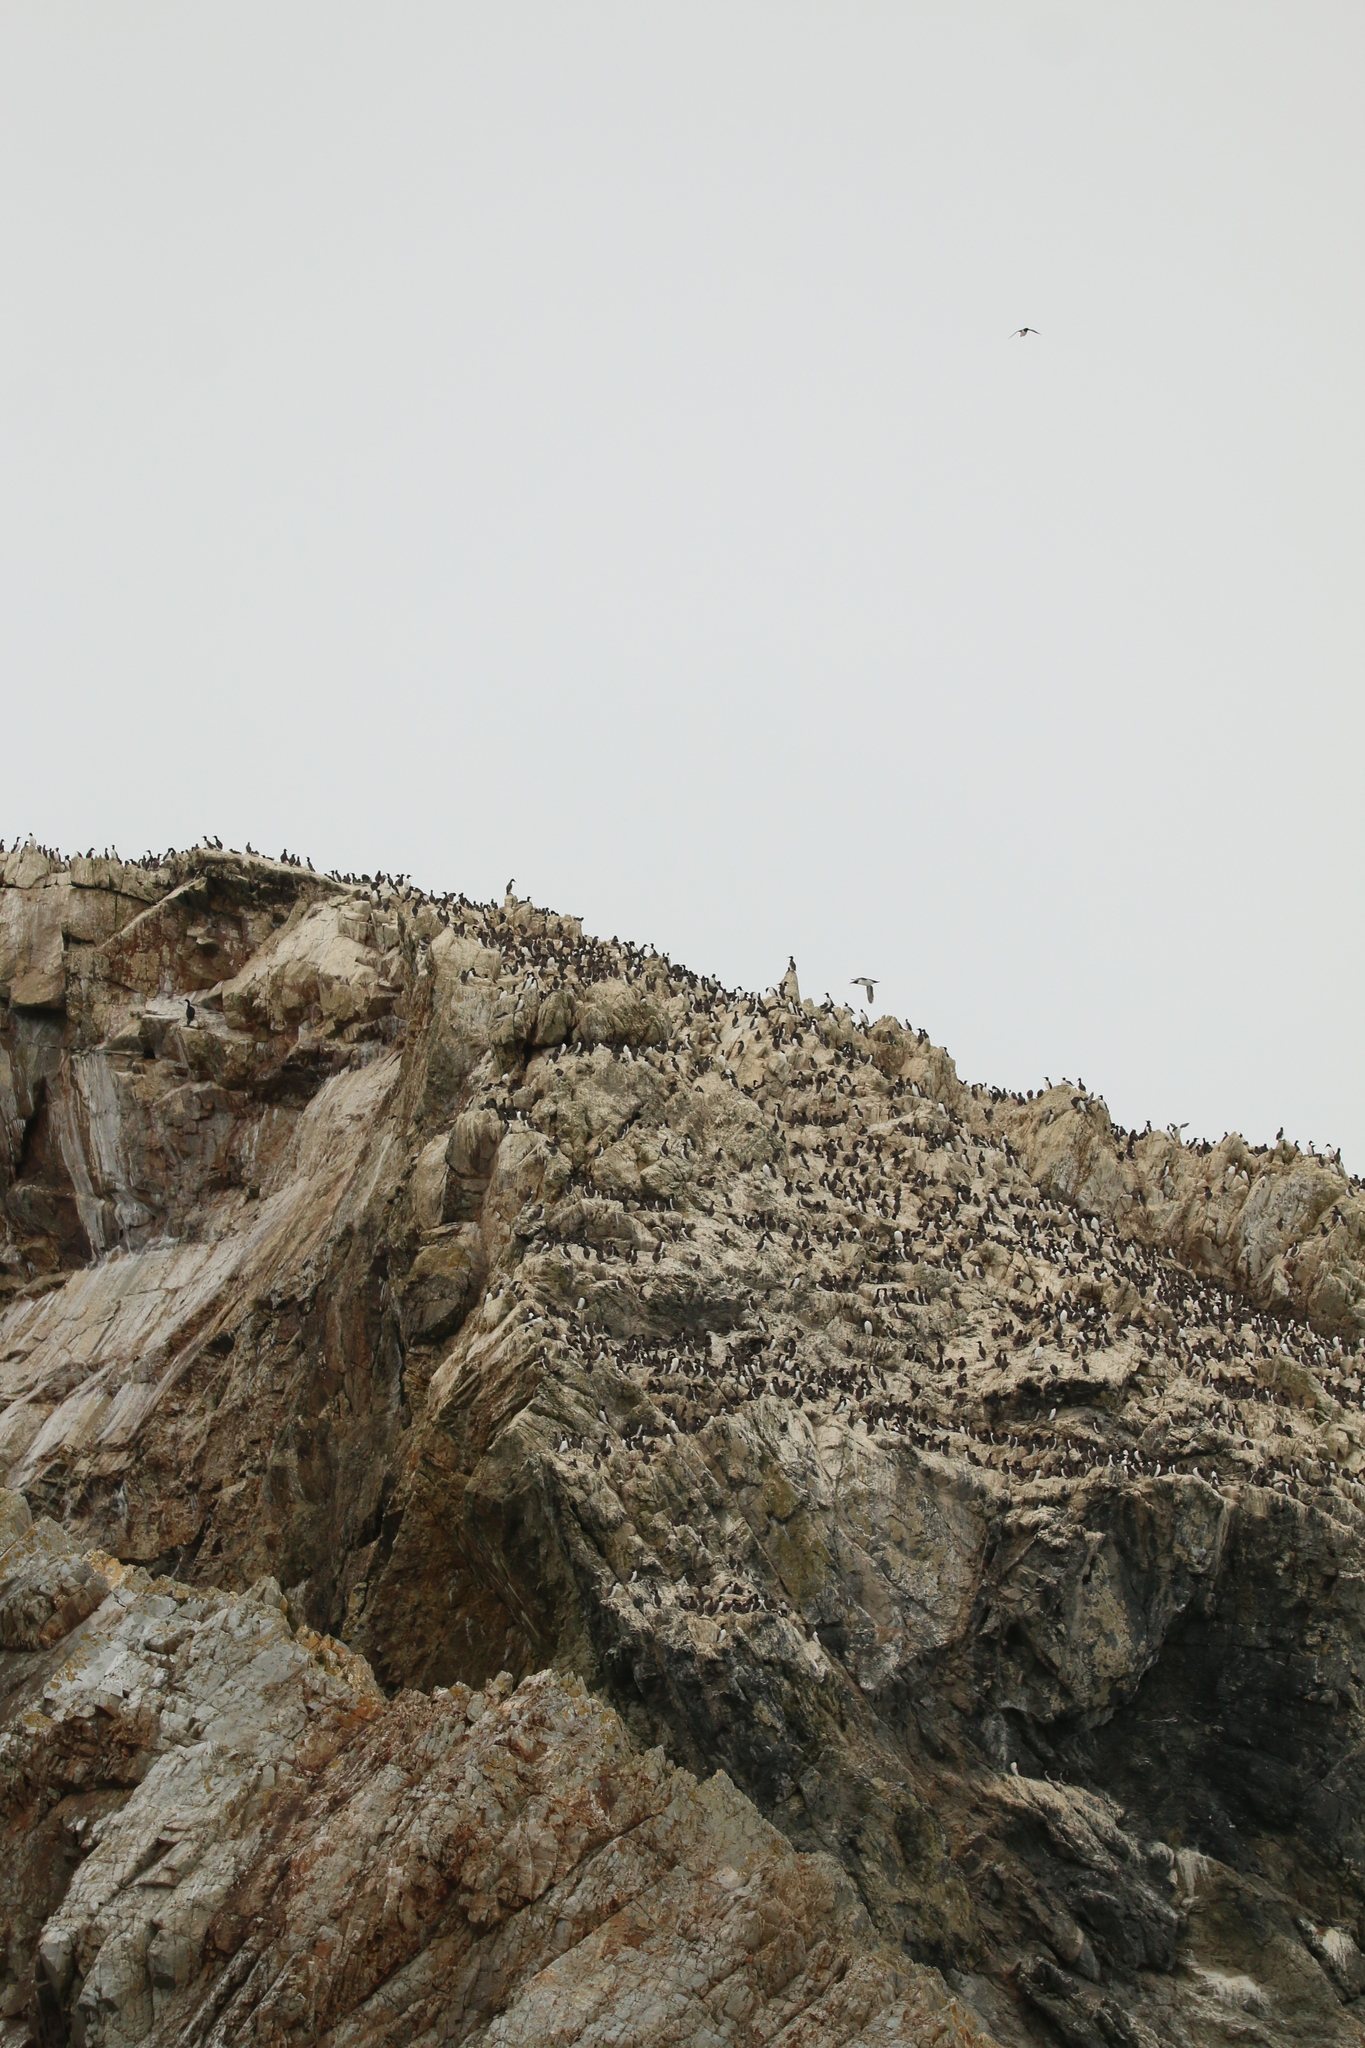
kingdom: Animalia
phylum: Chordata
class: Aves
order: Charadriiformes
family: Alcidae
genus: Uria
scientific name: Uria aalge
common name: Common murre
